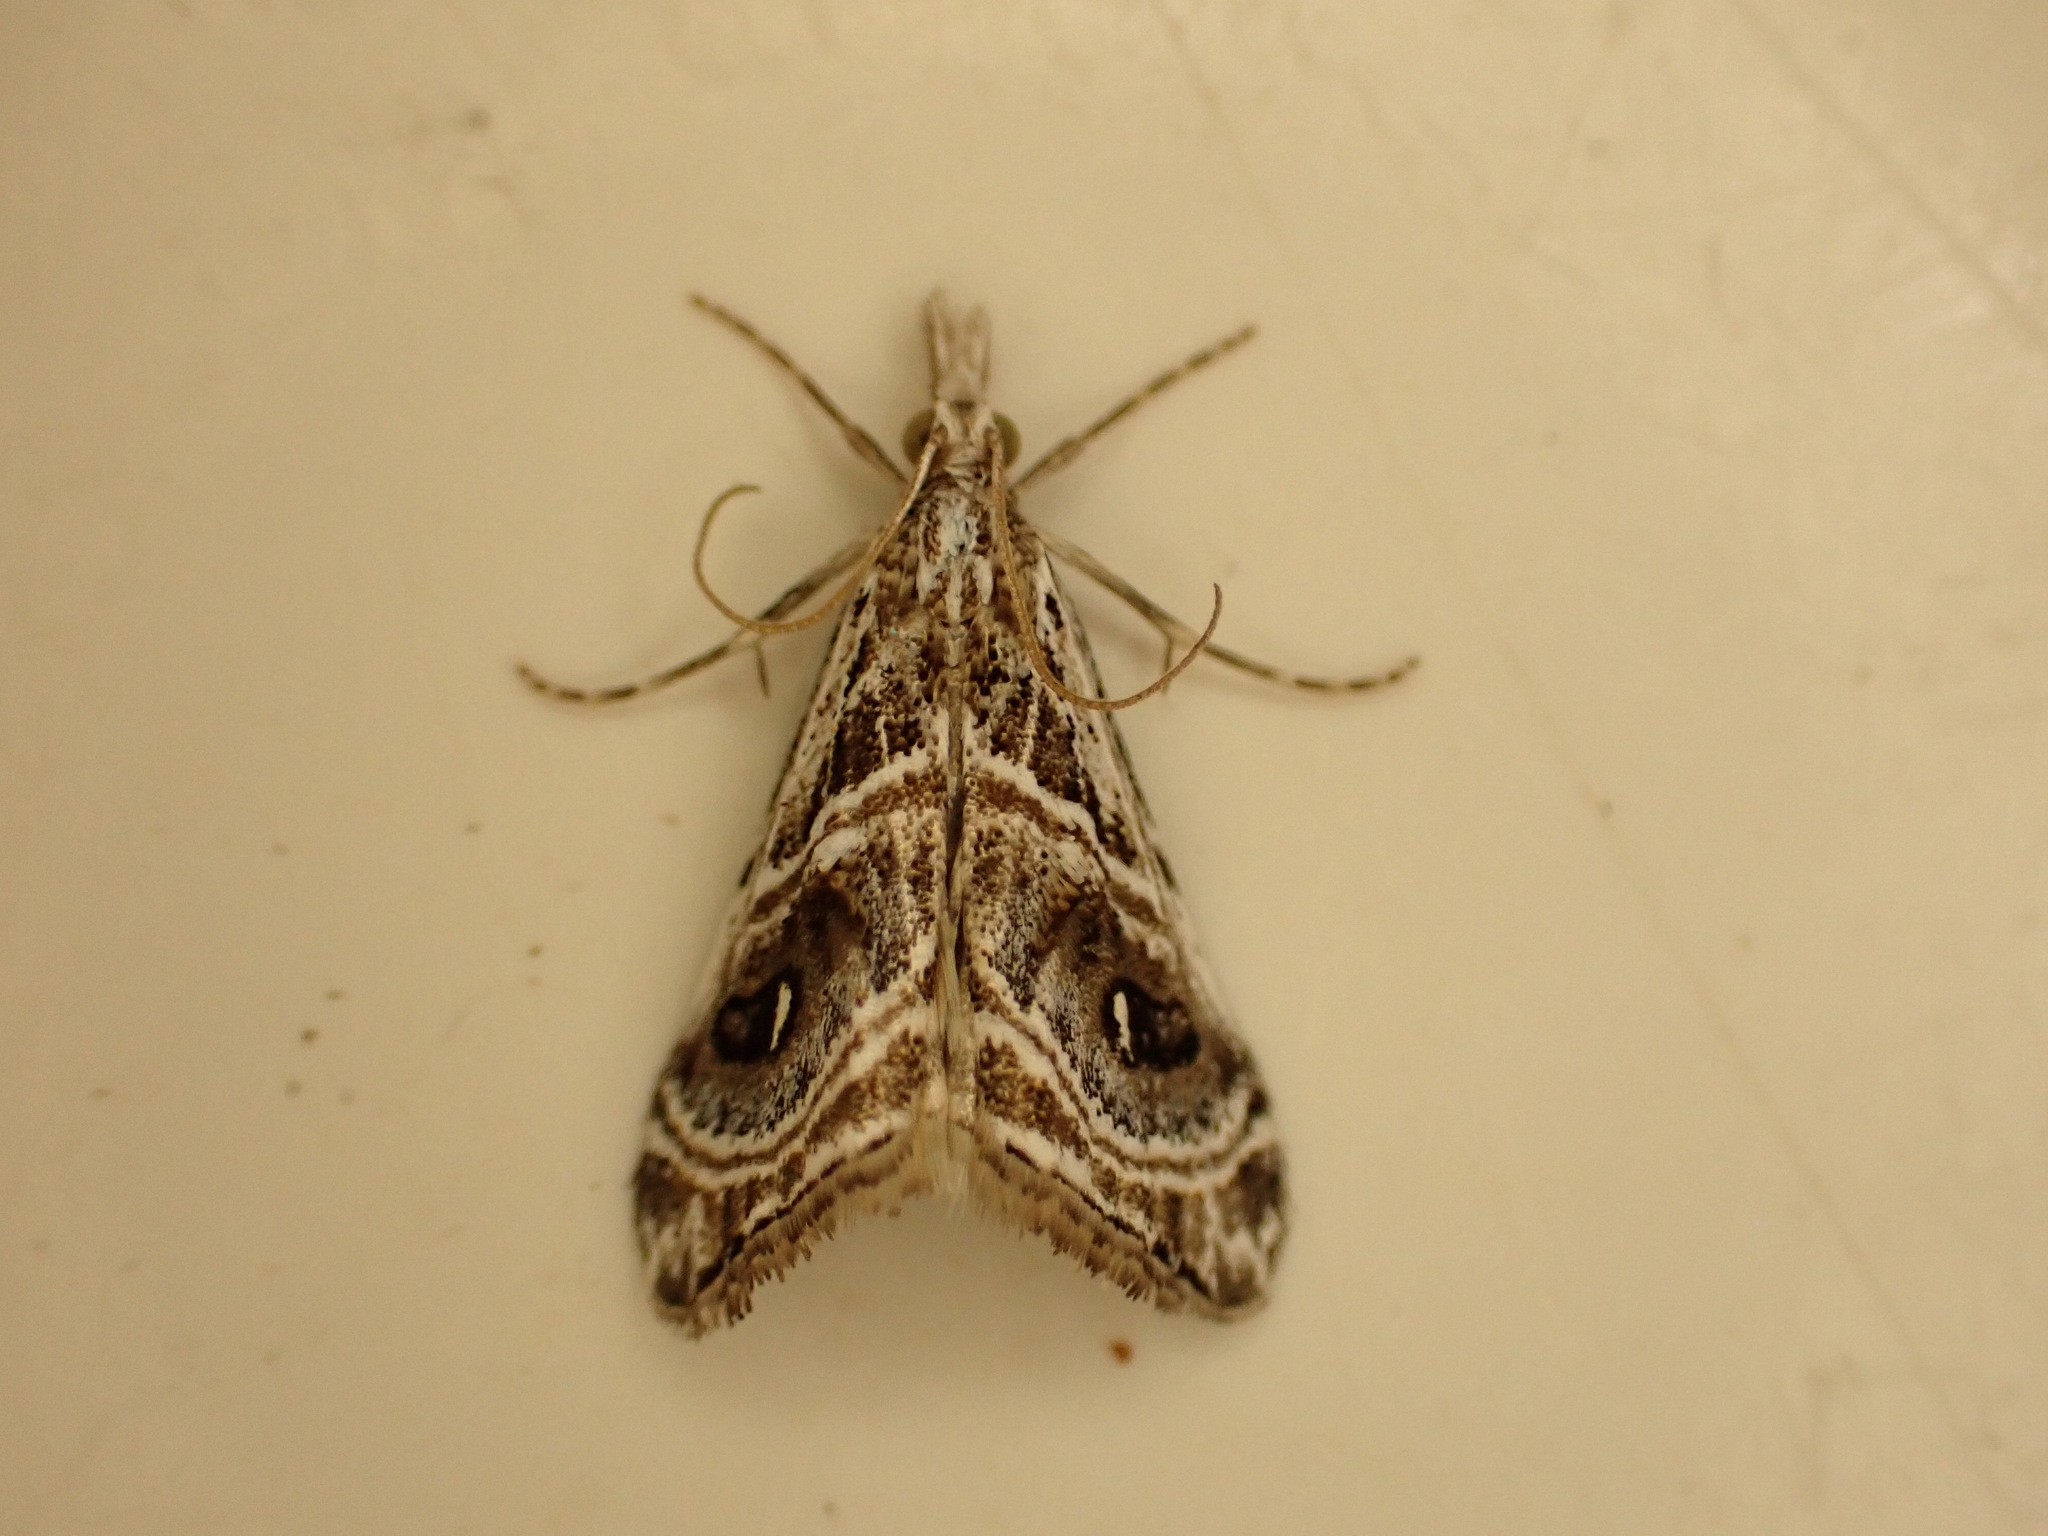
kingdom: Animalia
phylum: Arthropoda
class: Insecta
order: Lepidoptera
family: Crambidae
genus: Gadira
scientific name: Gadira acerella
